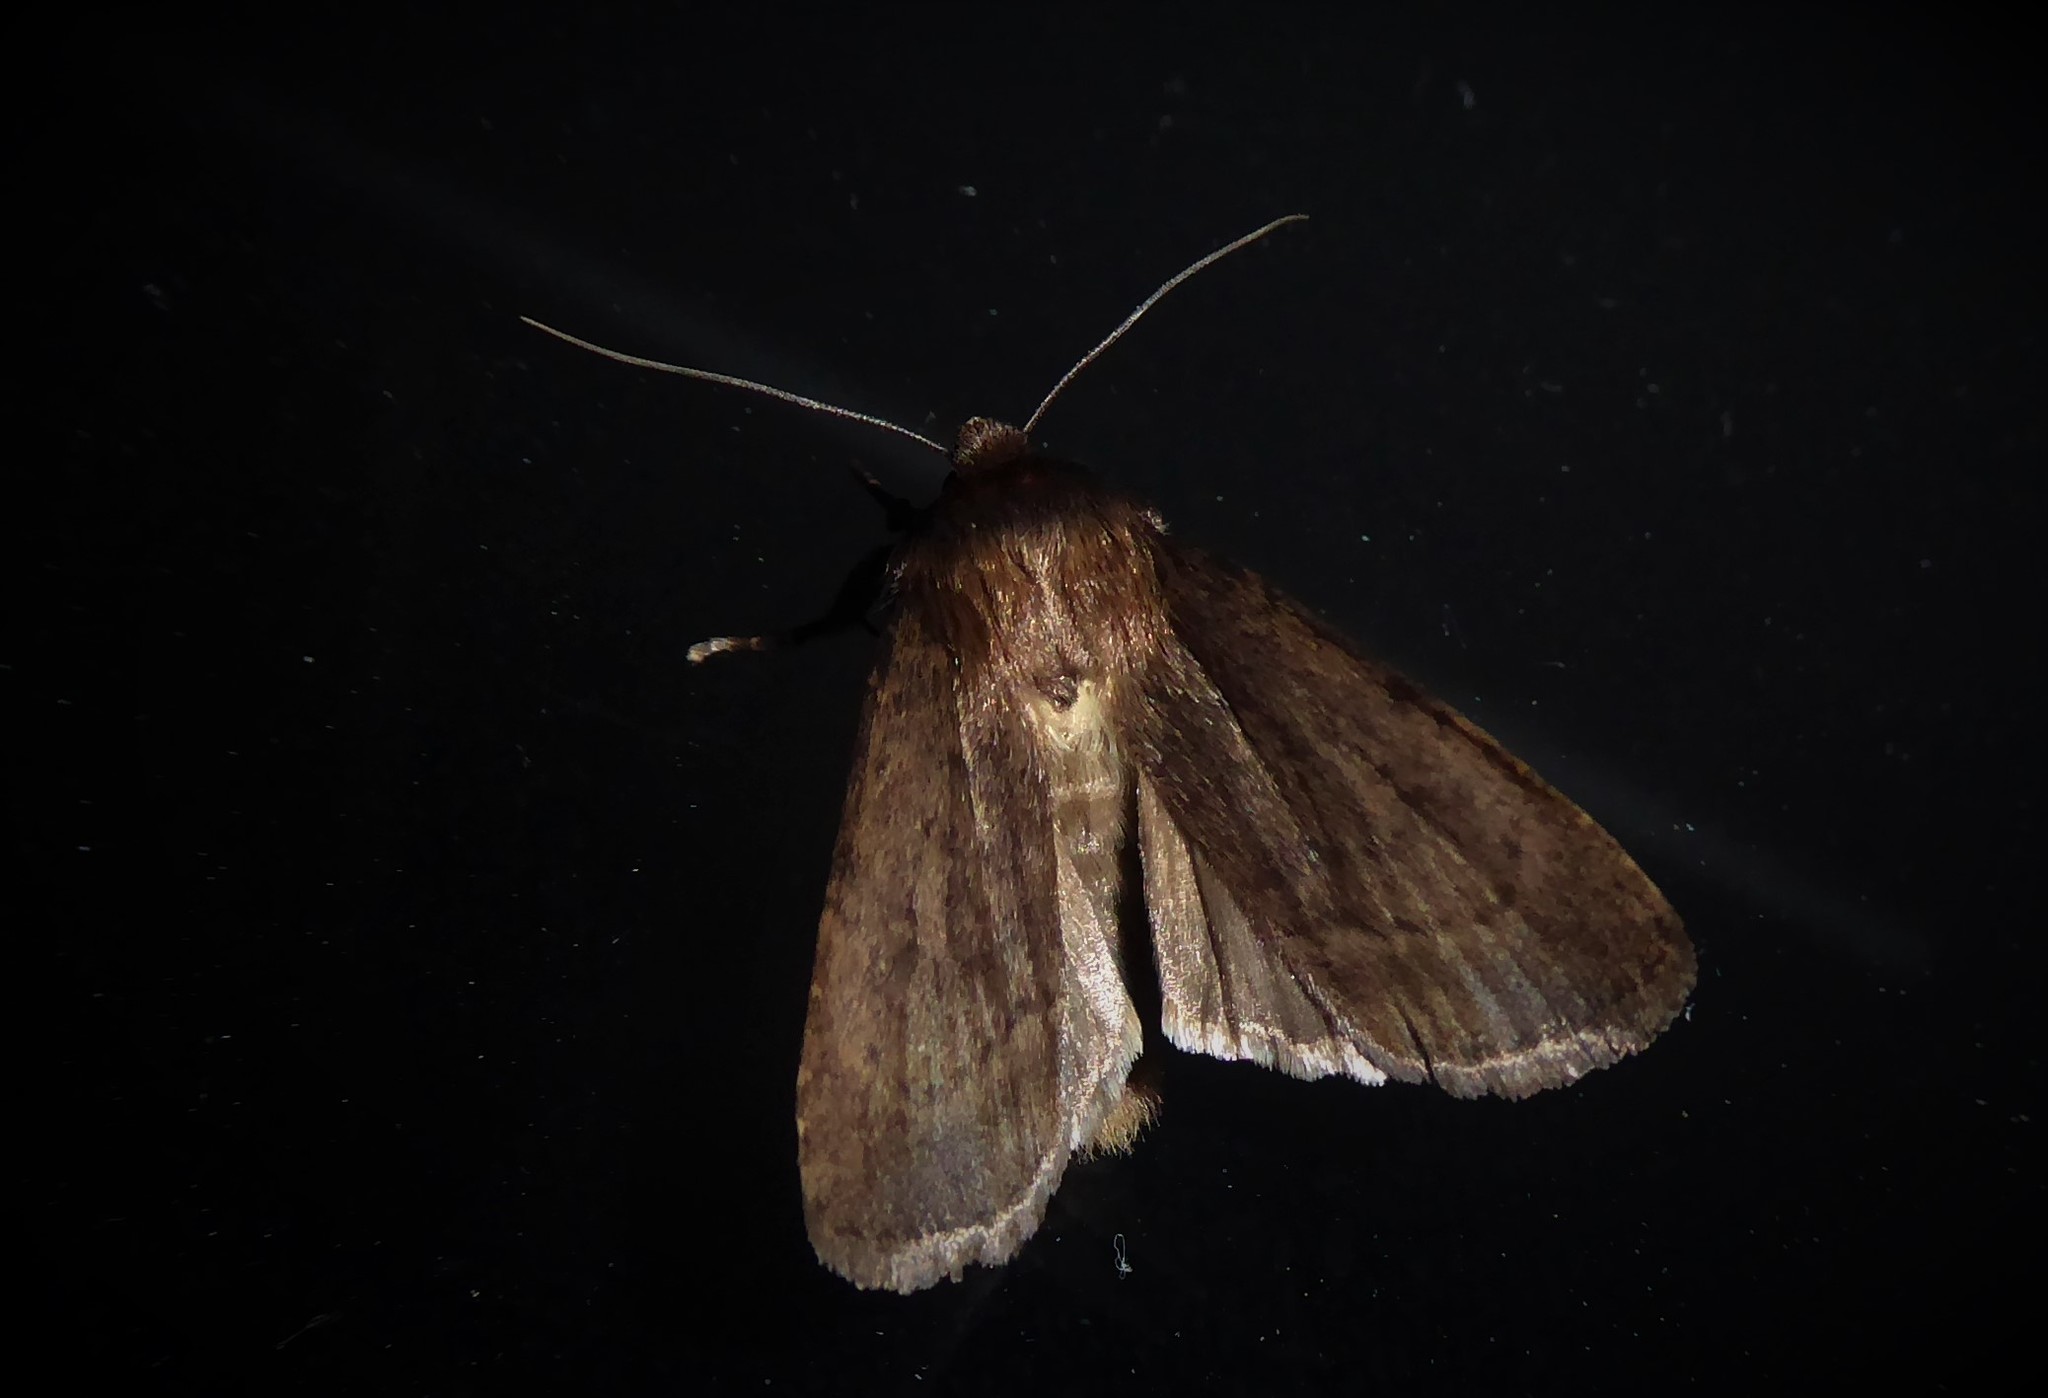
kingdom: Animalia
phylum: Arthropoda
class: Insecta
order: Lepidoptera
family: Noctuidae
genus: Bityla
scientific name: Bityla defigurata
